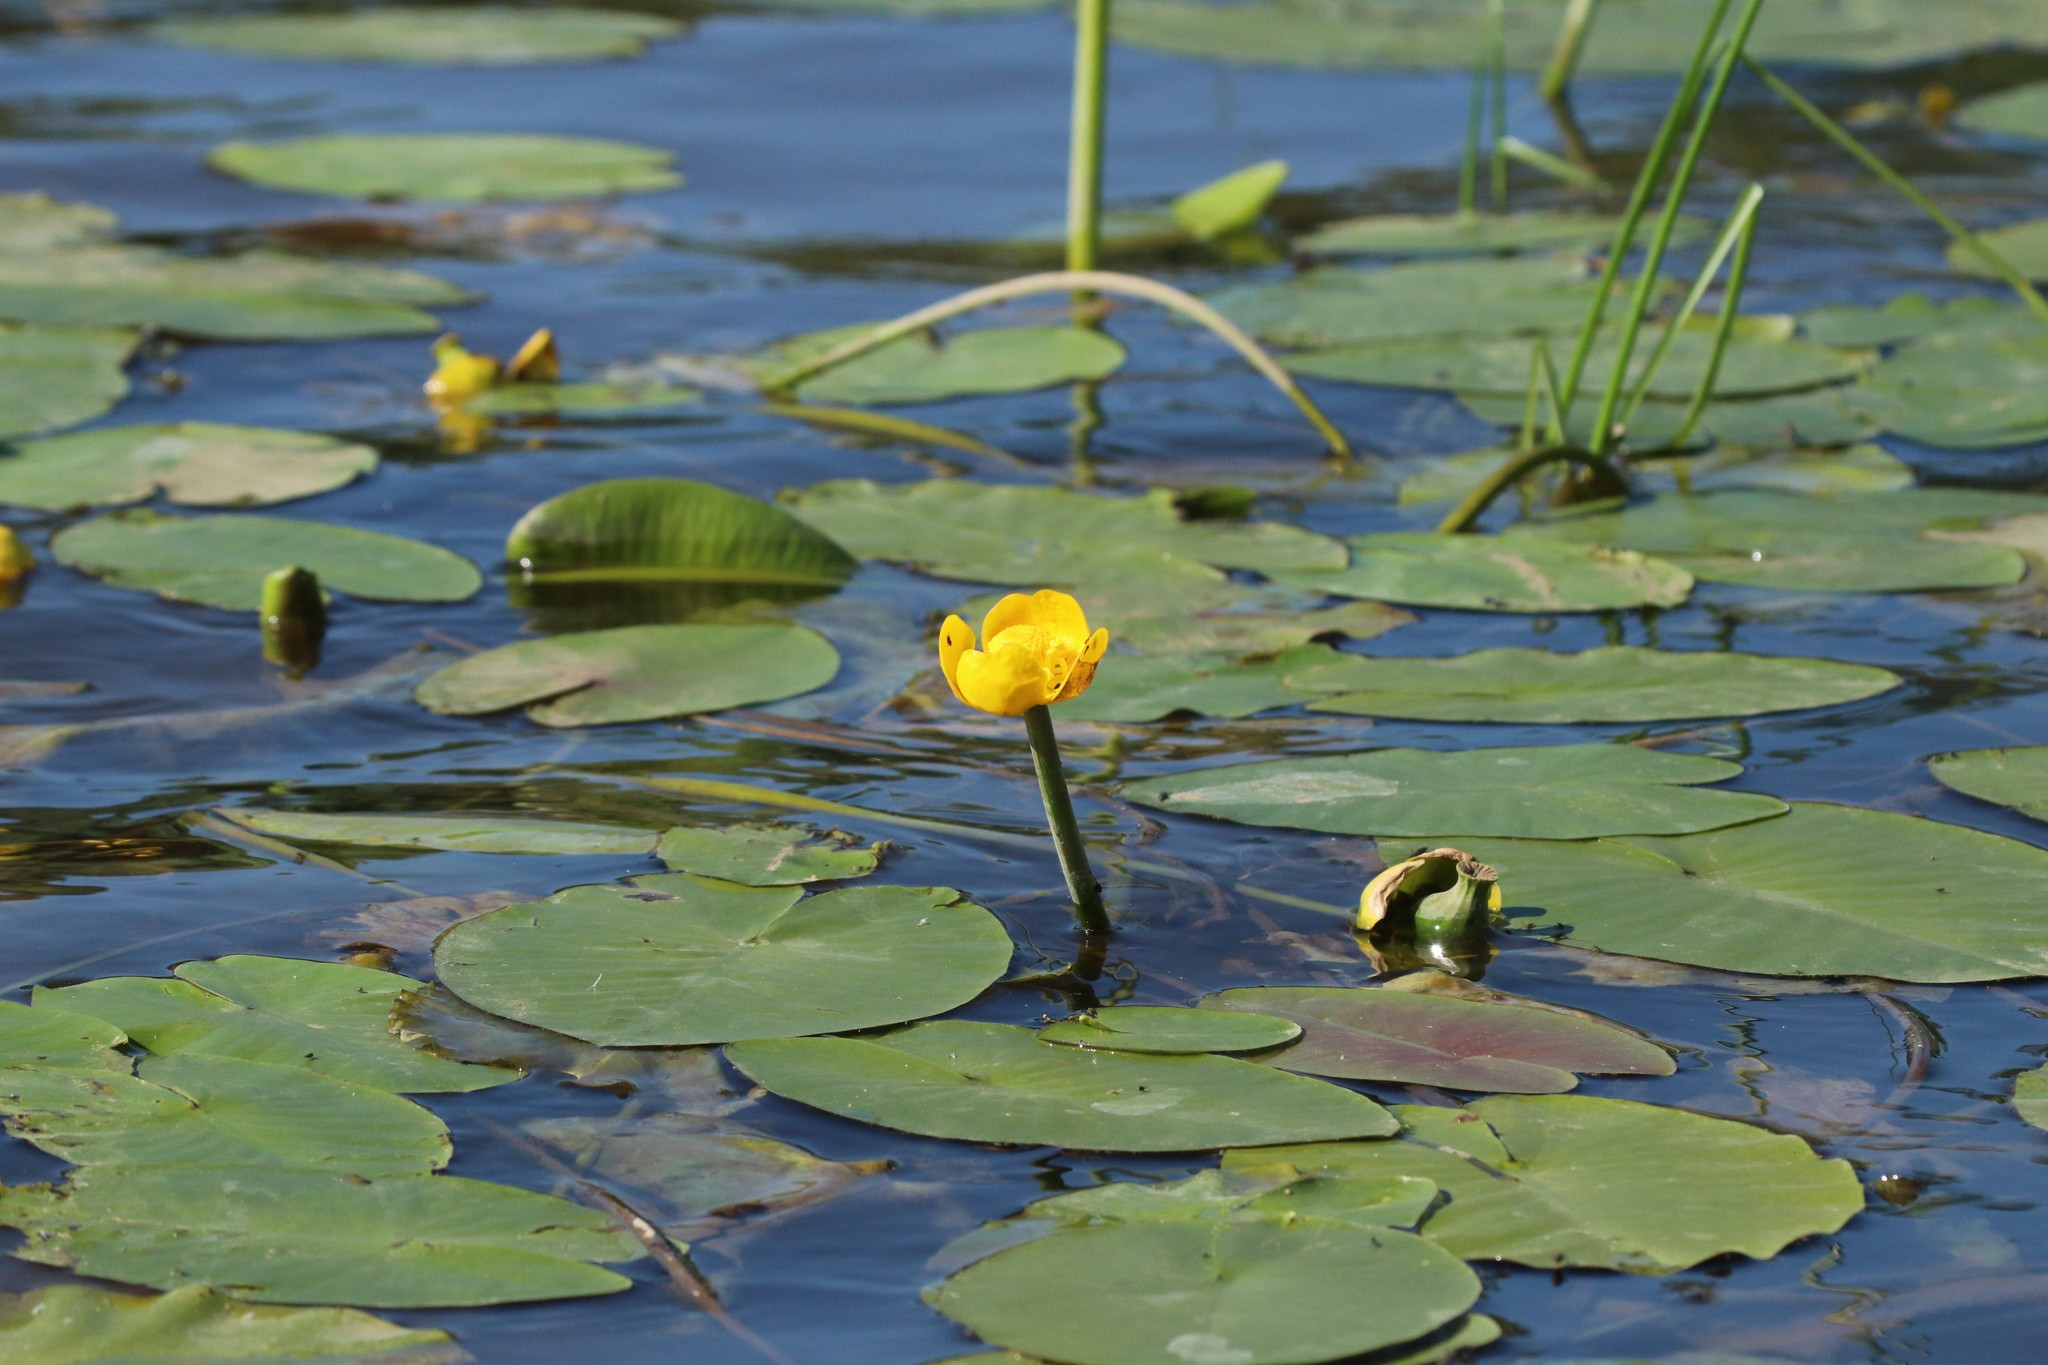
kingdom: Plantae
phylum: Tracheophyta
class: Magnoliopsida
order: Nymphaeales
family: Nymphaeaceae
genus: Nuphar
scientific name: Nuphar lutea
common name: Yellow water-lily
